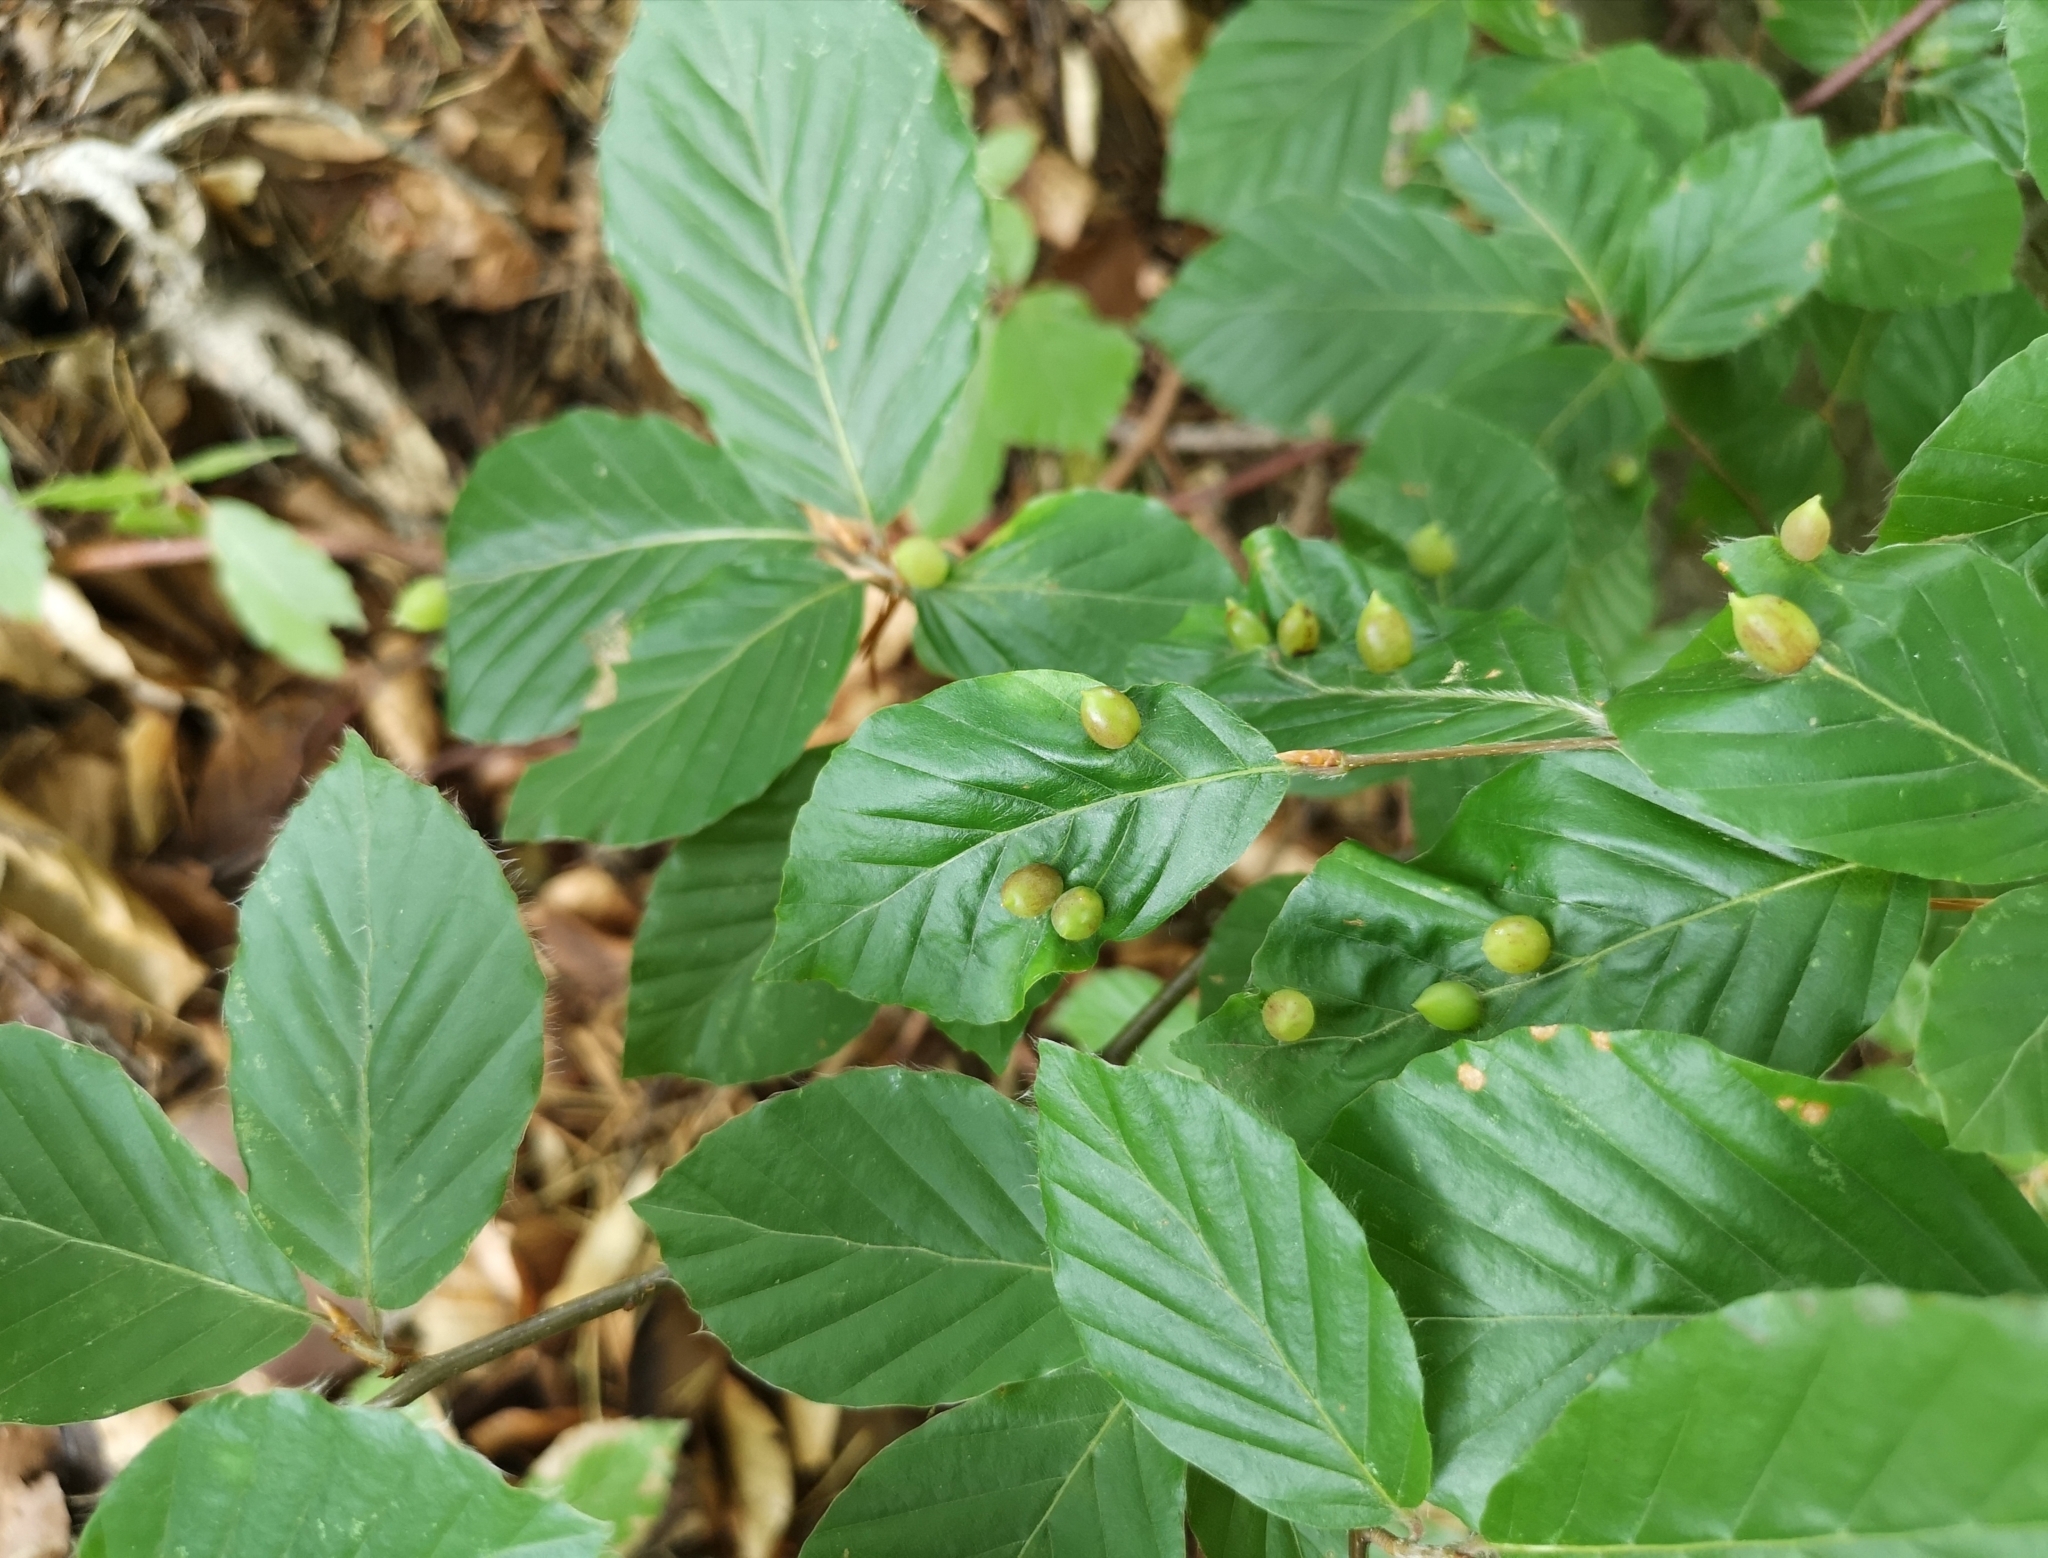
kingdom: Animalia
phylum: Arthropoda
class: Insecta
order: Diptera
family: Cecidomyiidae
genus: Mikiola
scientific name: Mikiola fagi
